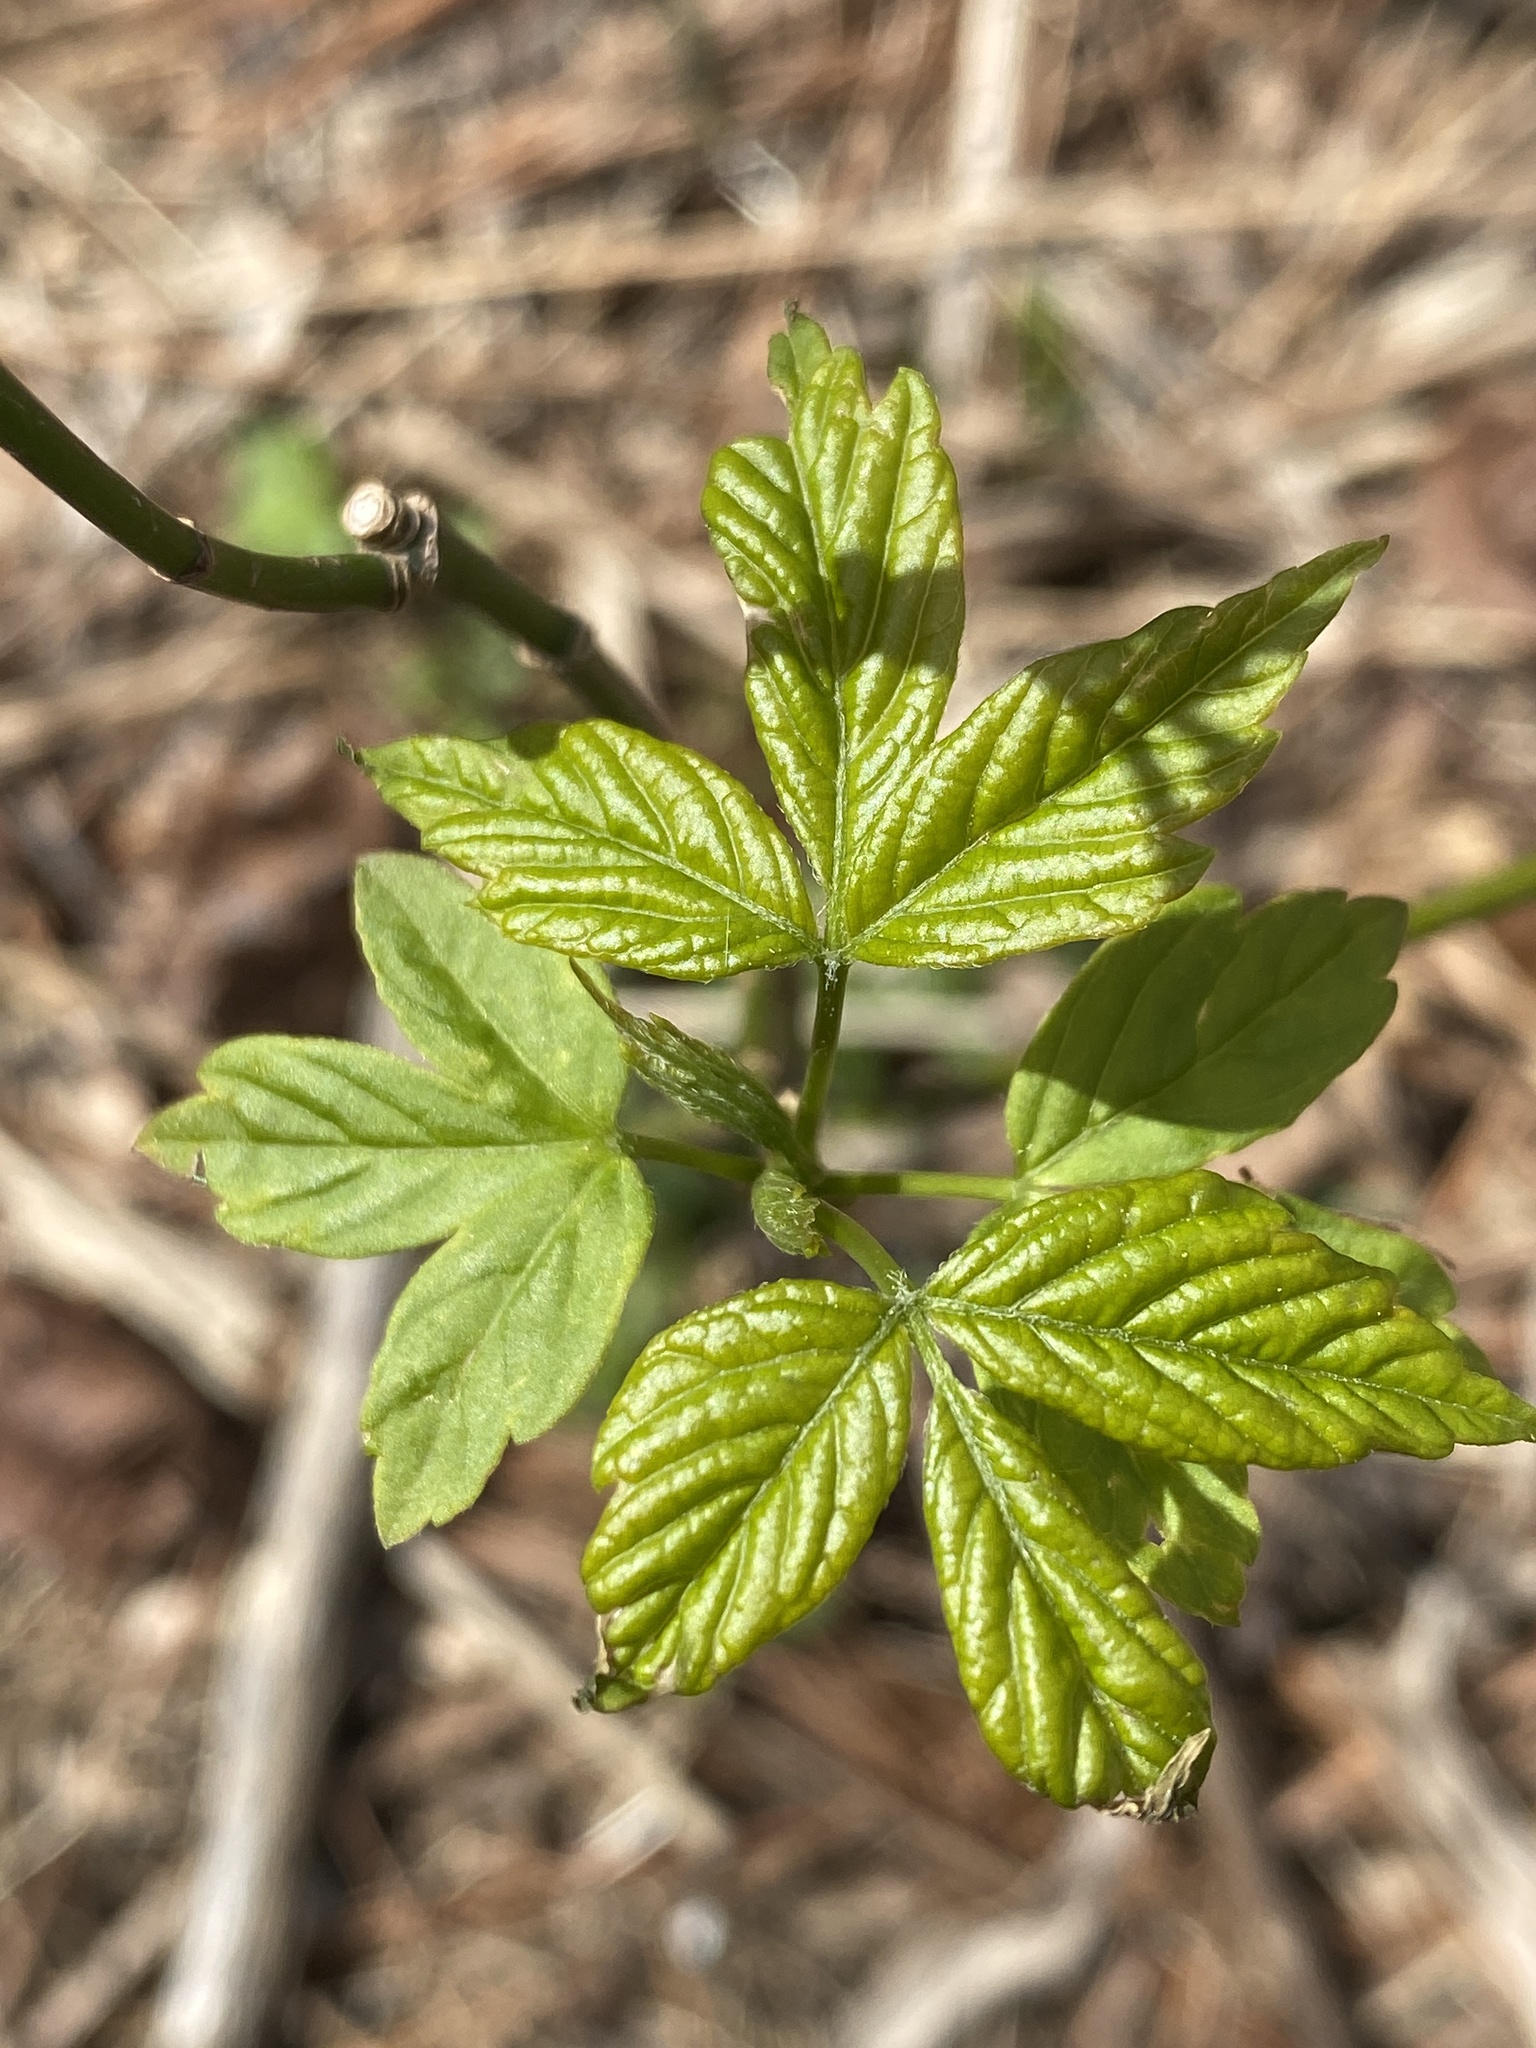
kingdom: Plantae
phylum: Tracheophyta
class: Magnoliopsida
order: Sapindales
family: Sapindaceae
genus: Acer
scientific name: Acer negundo
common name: Ashleaf maple
